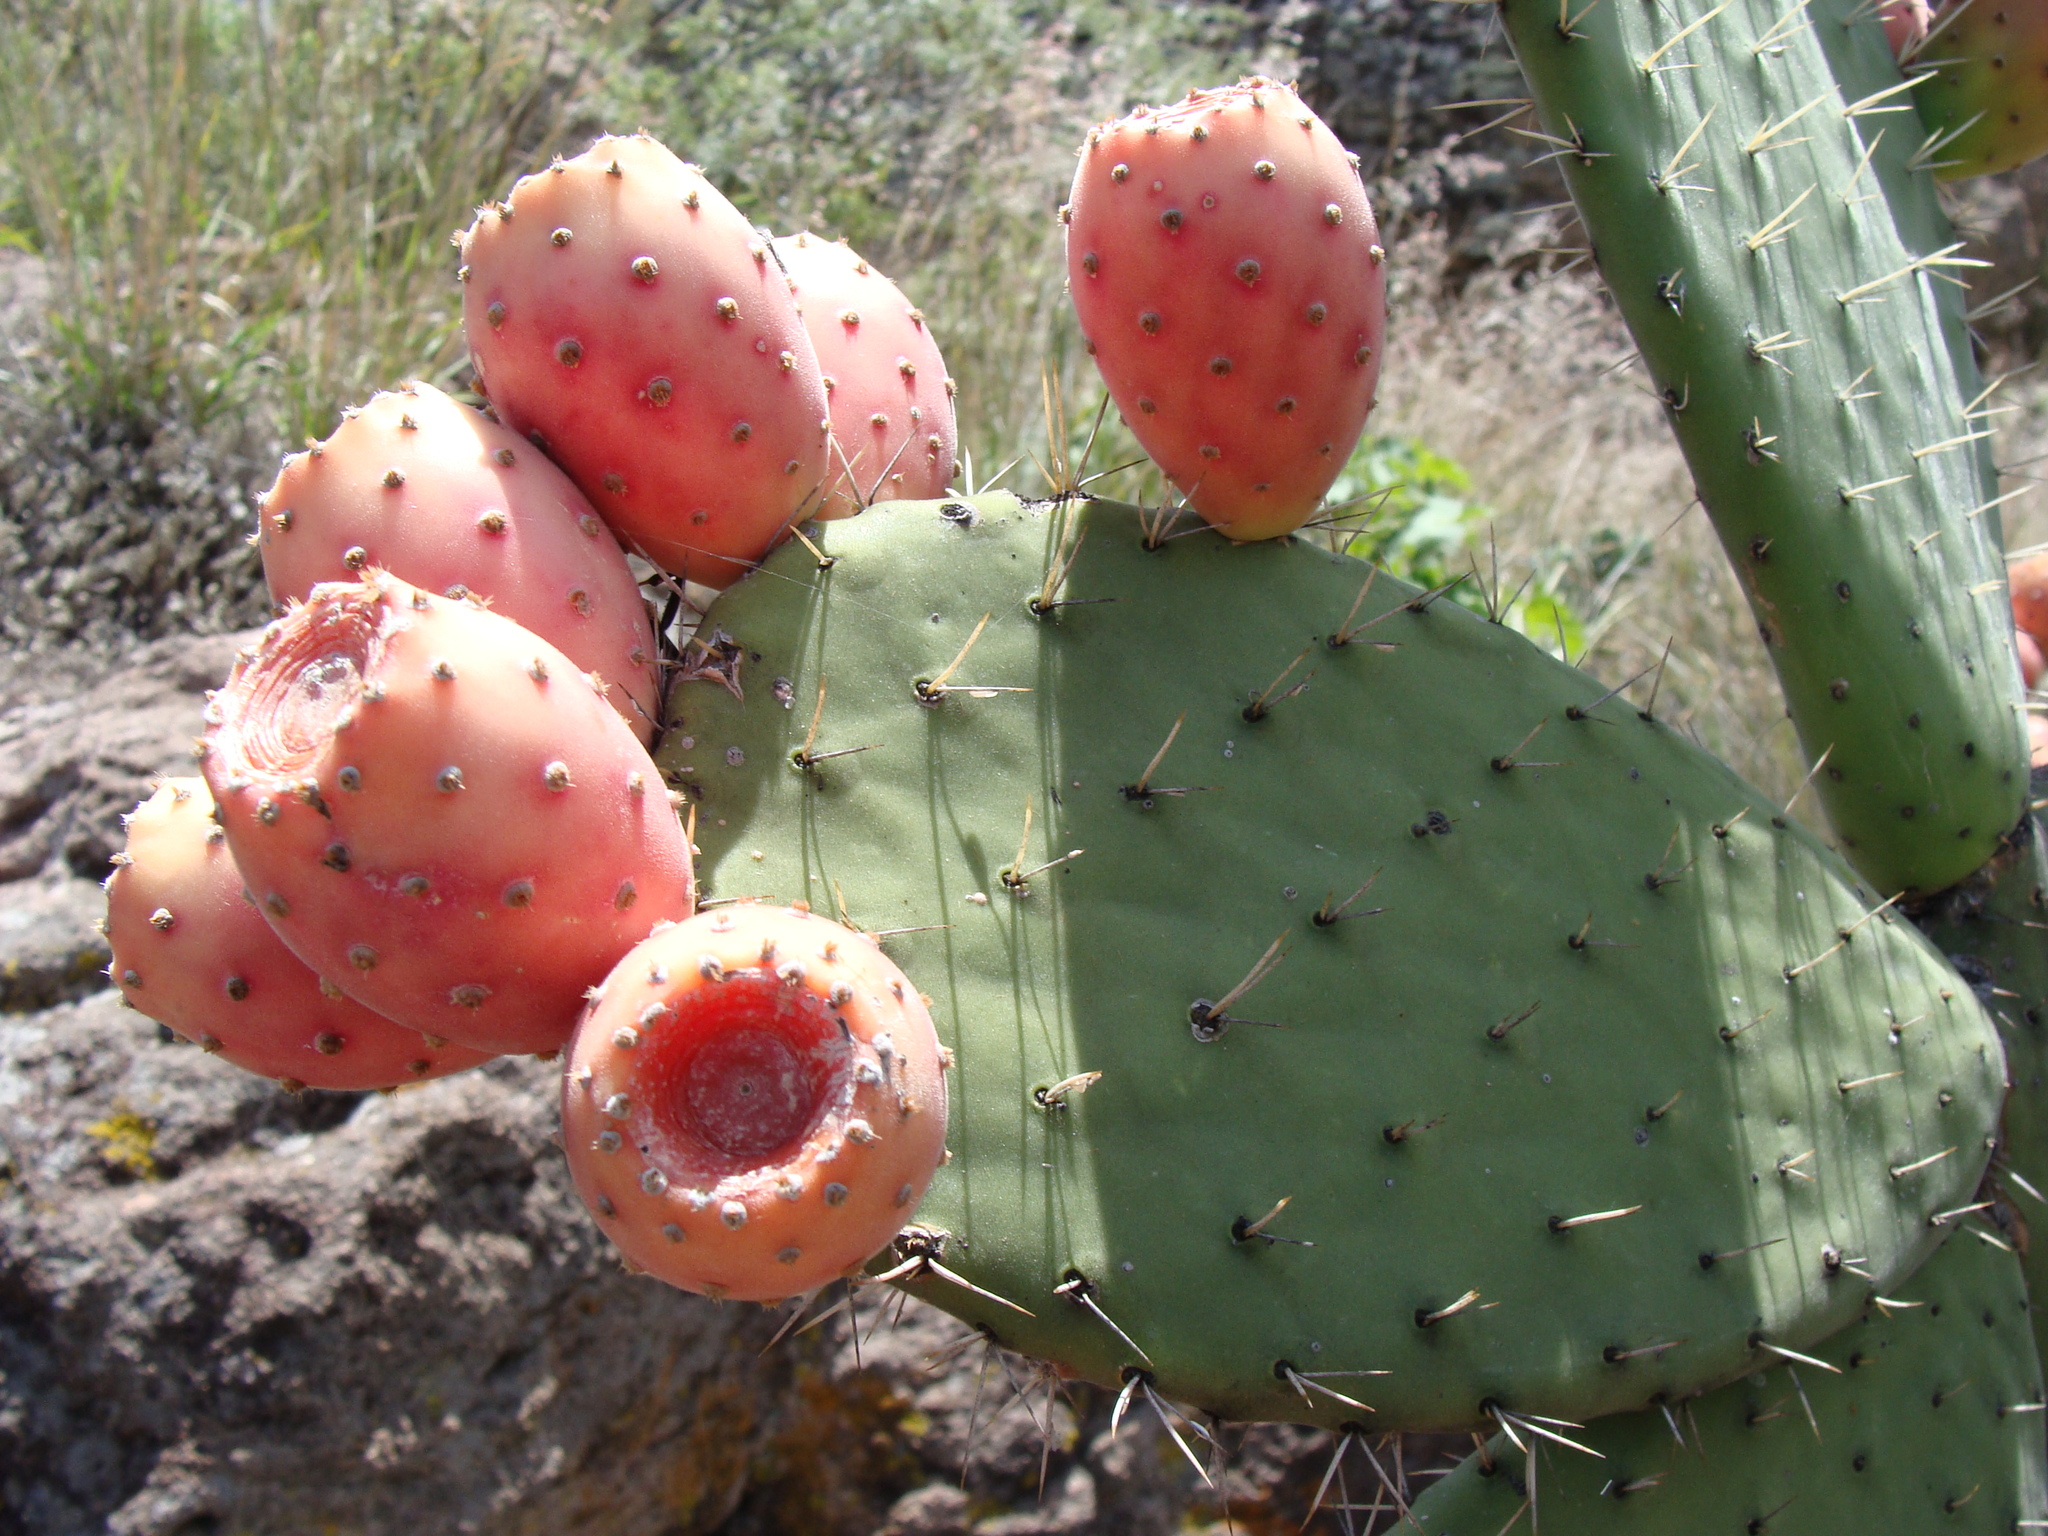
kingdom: Plantae
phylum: Tracheophyta
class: Magnoliopsida
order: Caryophyllales
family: Cactaceae
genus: Opuntia
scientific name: Opuntia hyptiacantha
